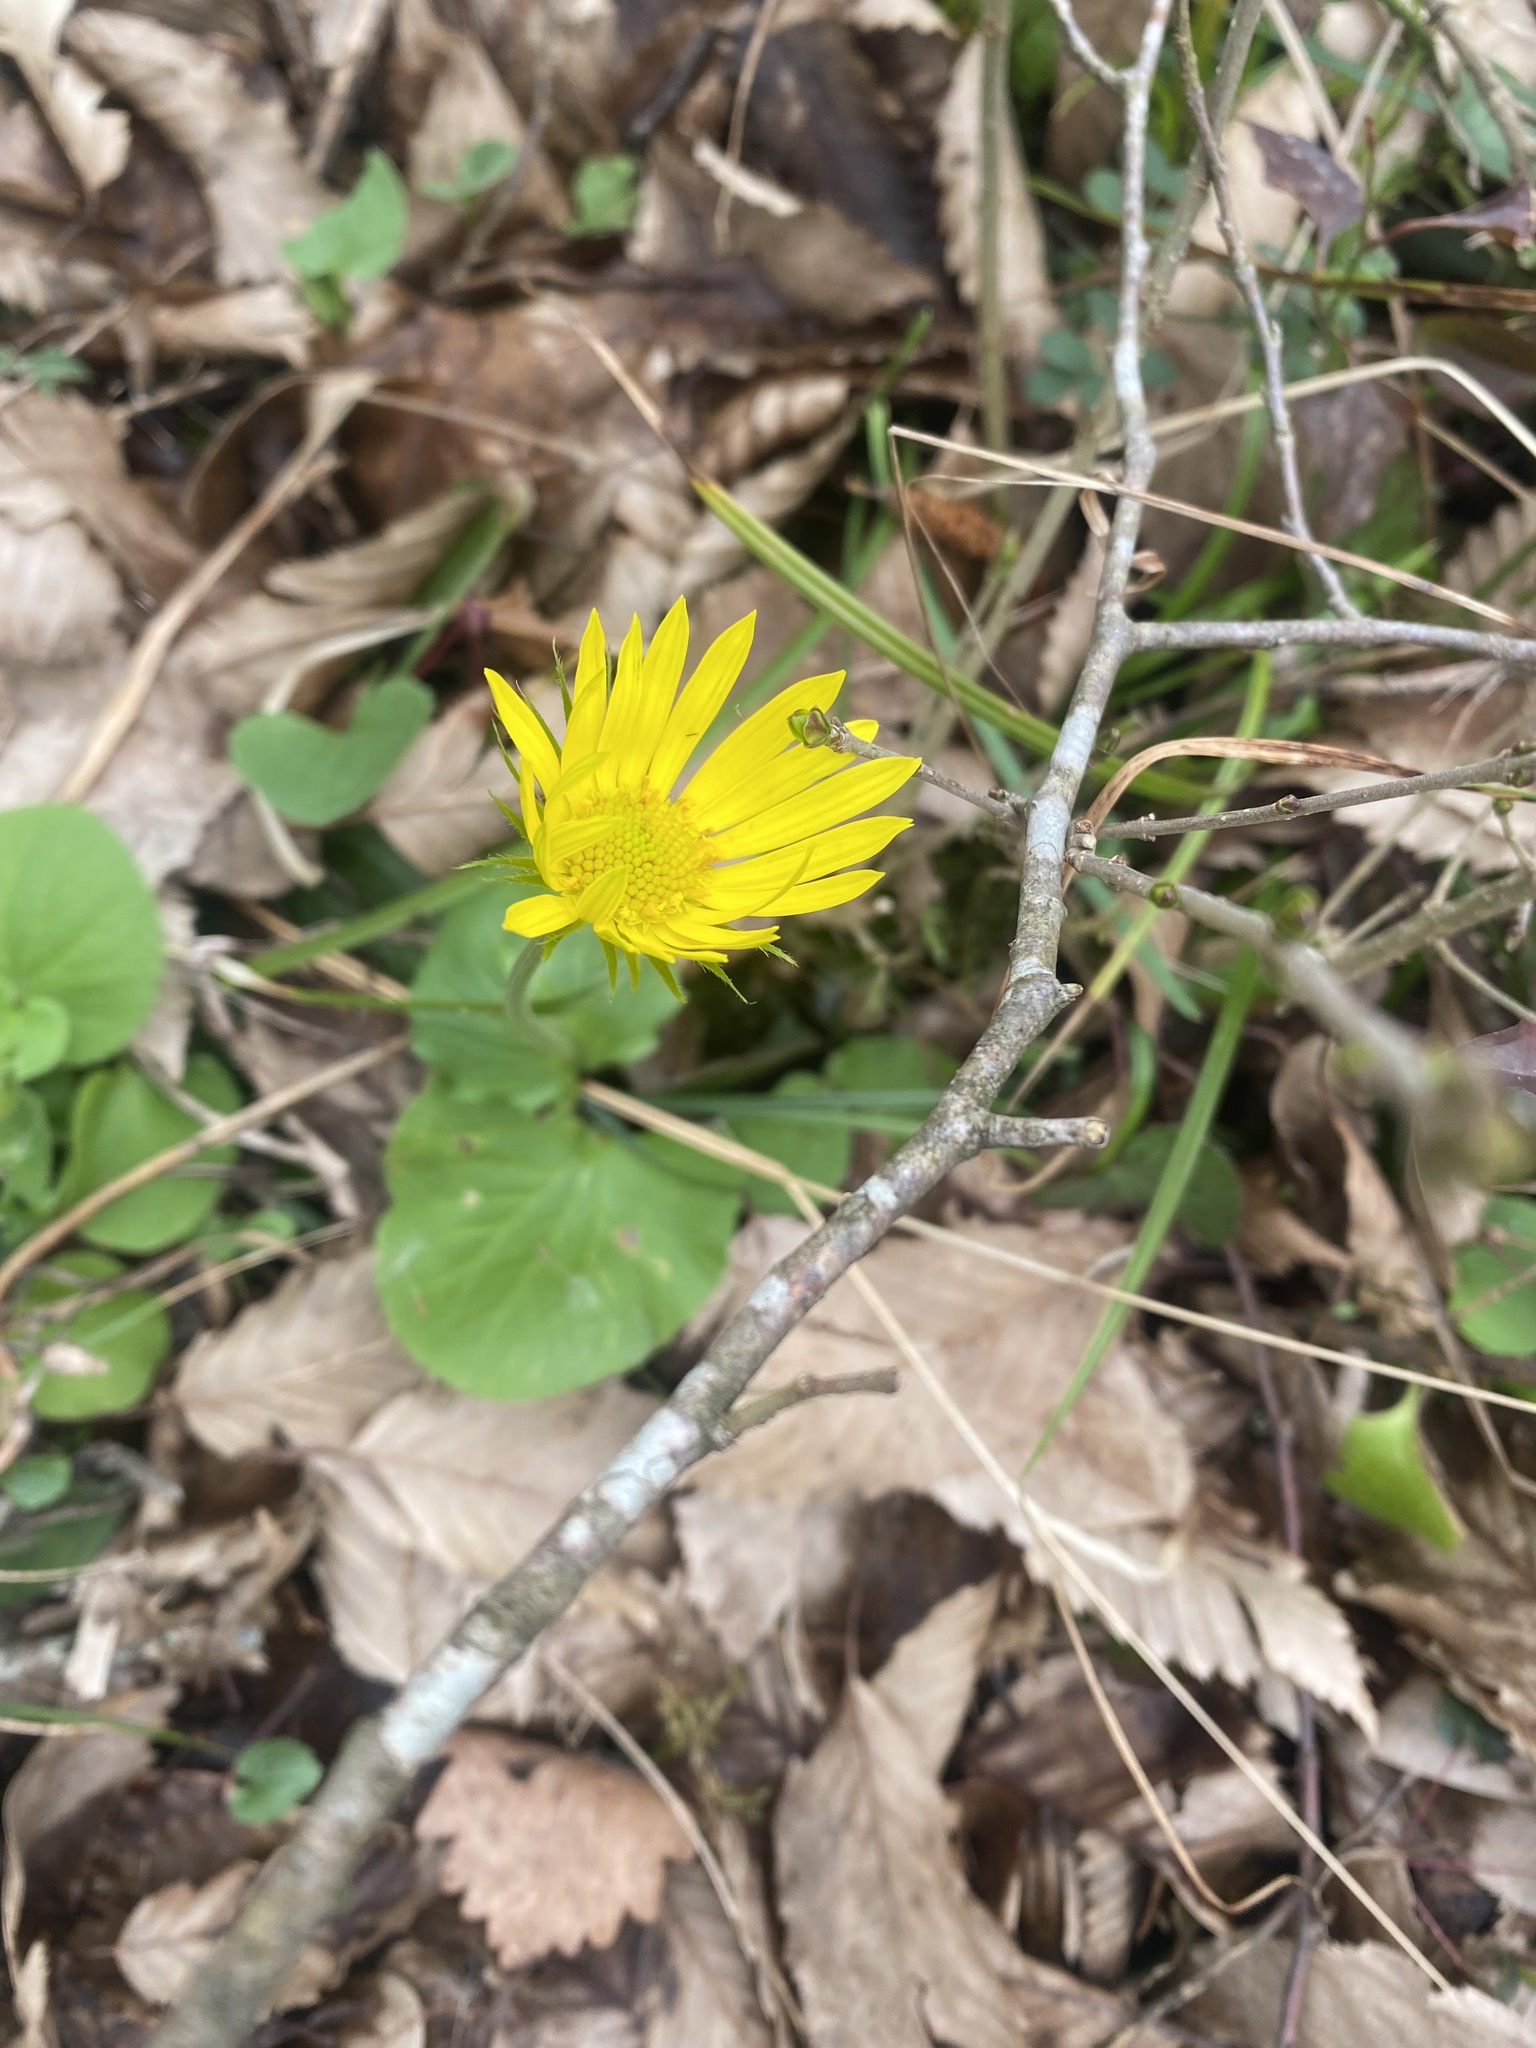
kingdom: Plantae
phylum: Tracheophyta
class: Magnoliopsida
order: Asterales
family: Asteraceae
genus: Doronicum
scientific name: Doronicum
